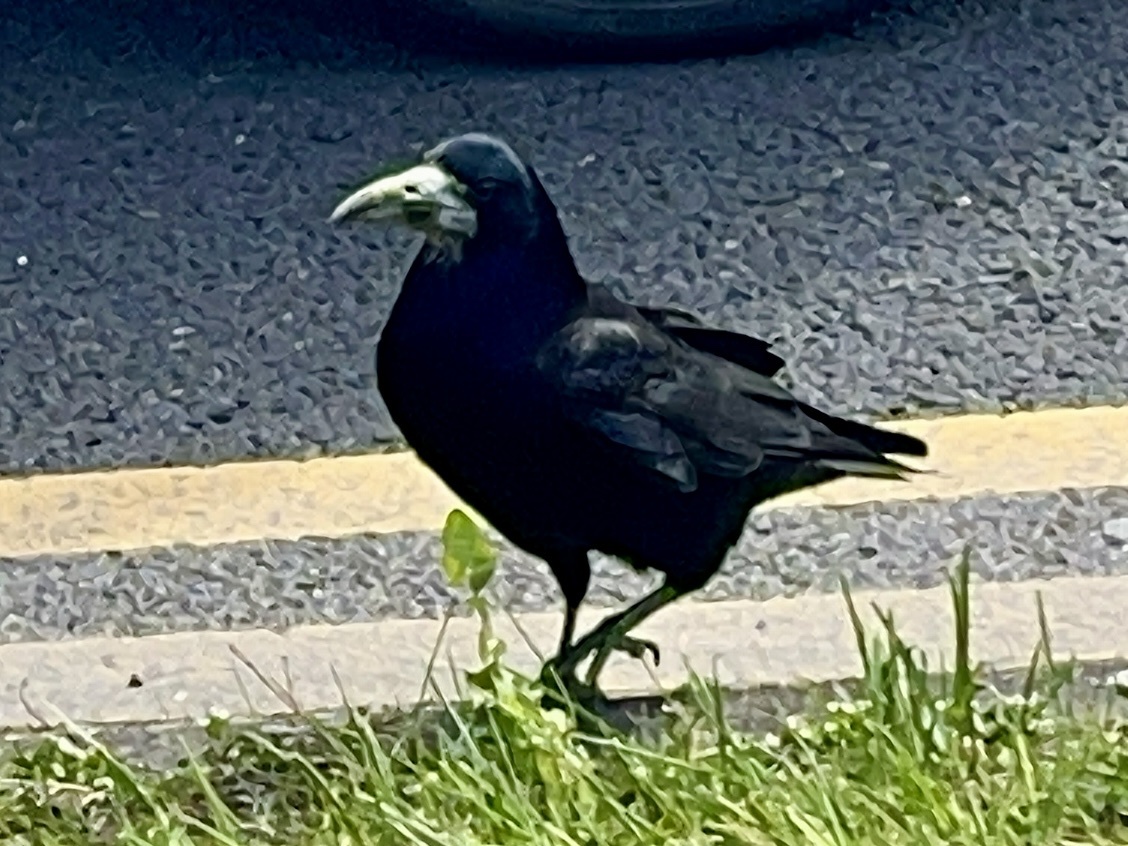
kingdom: Animalia
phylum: Chordata
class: Aves
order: Passeriformes
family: Corvidae
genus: Corvus
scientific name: Corvus frugilegus
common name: Rook
